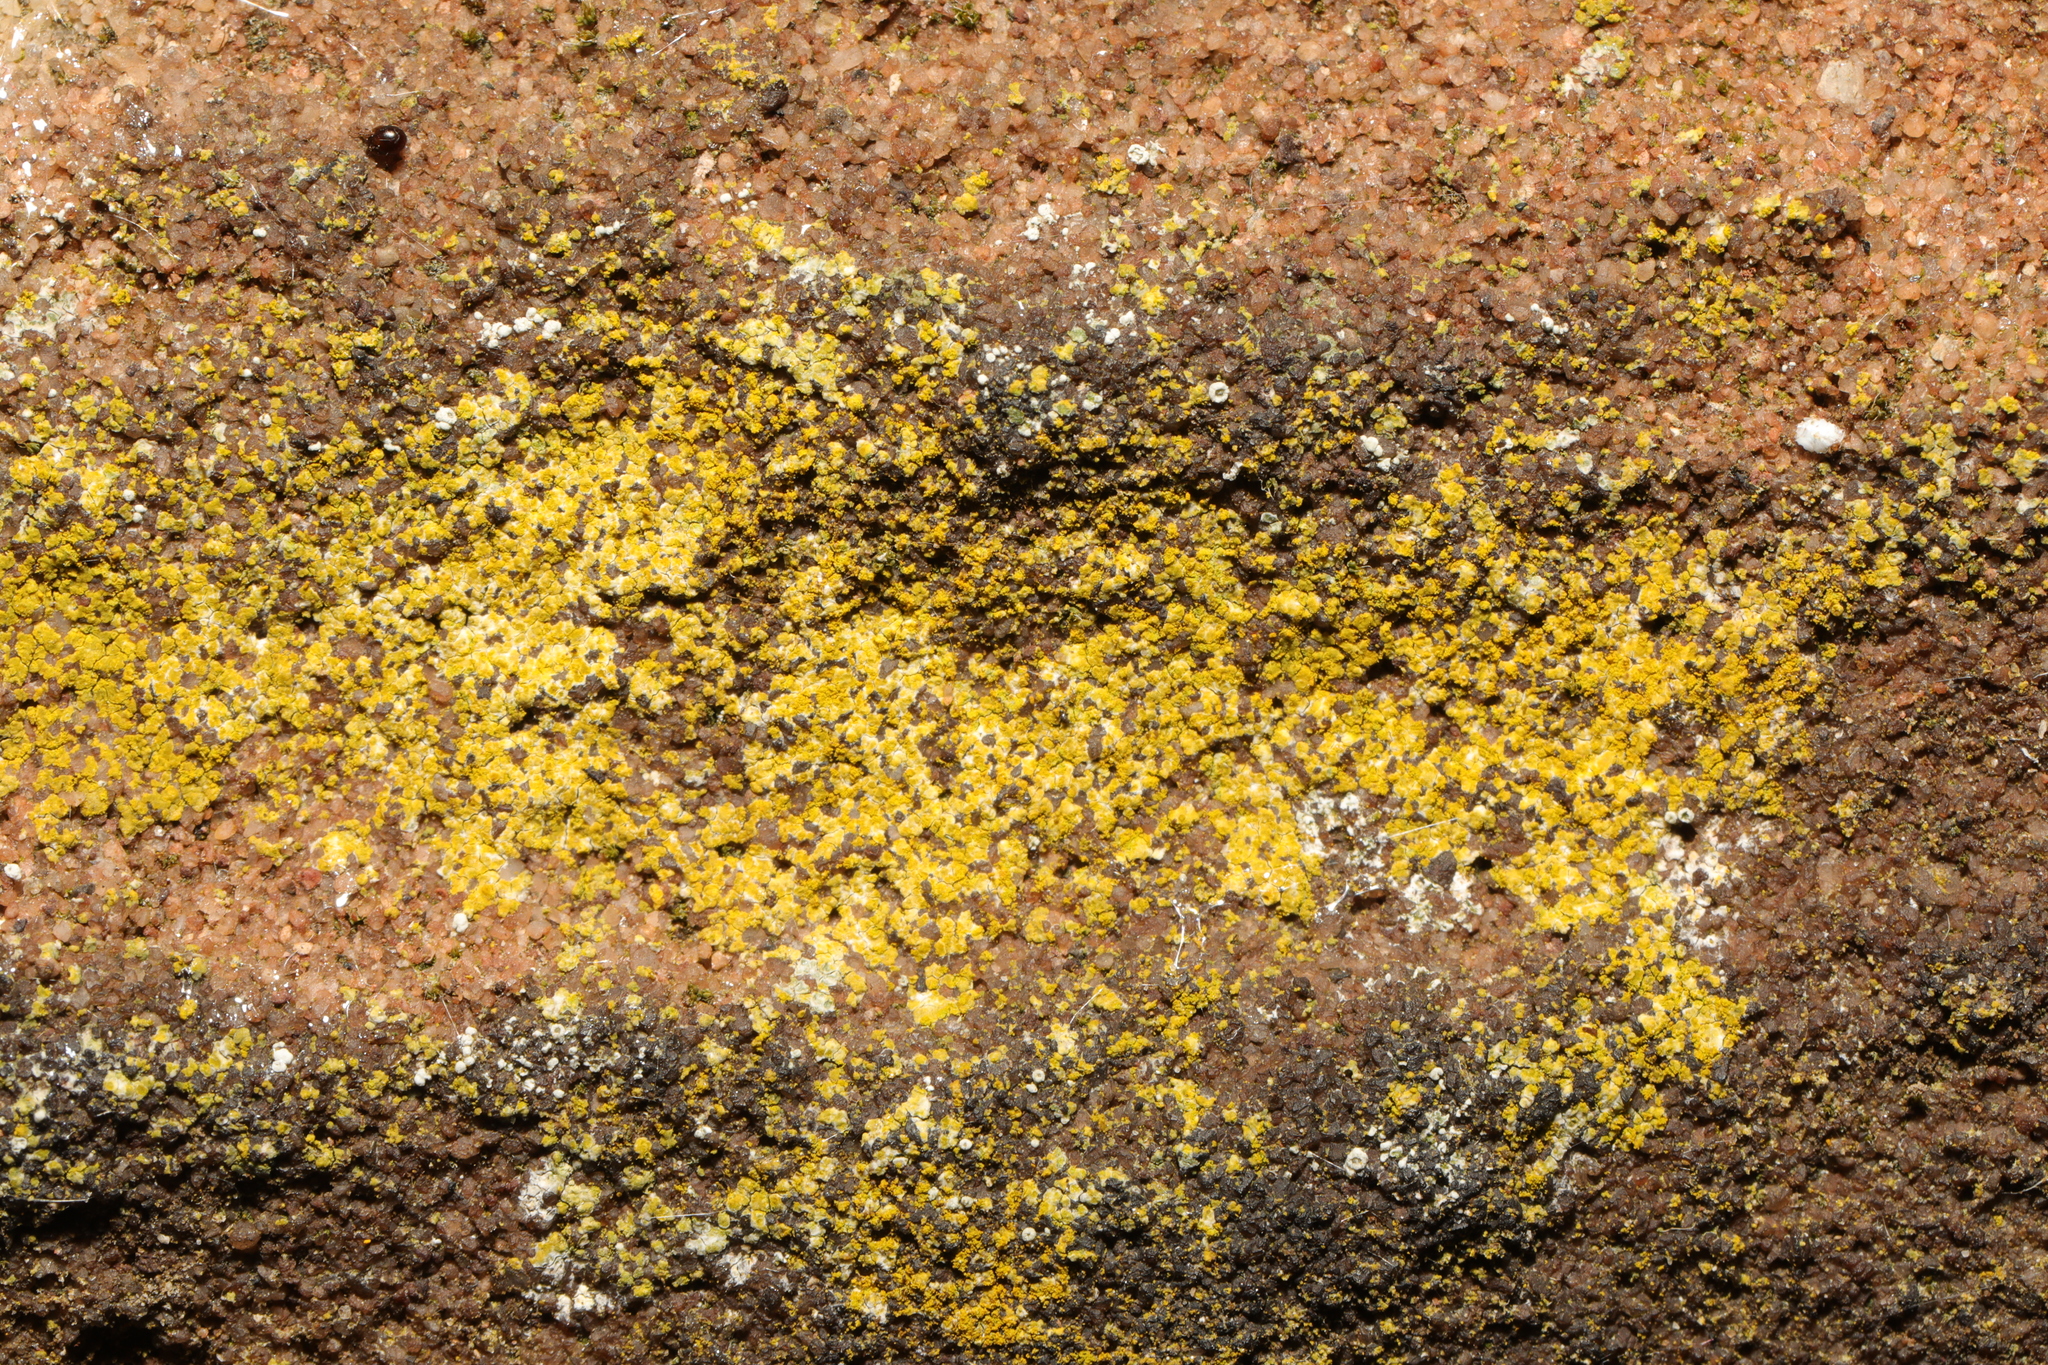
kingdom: Fungi
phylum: Ascomycota
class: Candelariomycetes
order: Candelariales
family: Candelariaceae
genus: Candelaria
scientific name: Candelaria concolor
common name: Candleflame lichen
